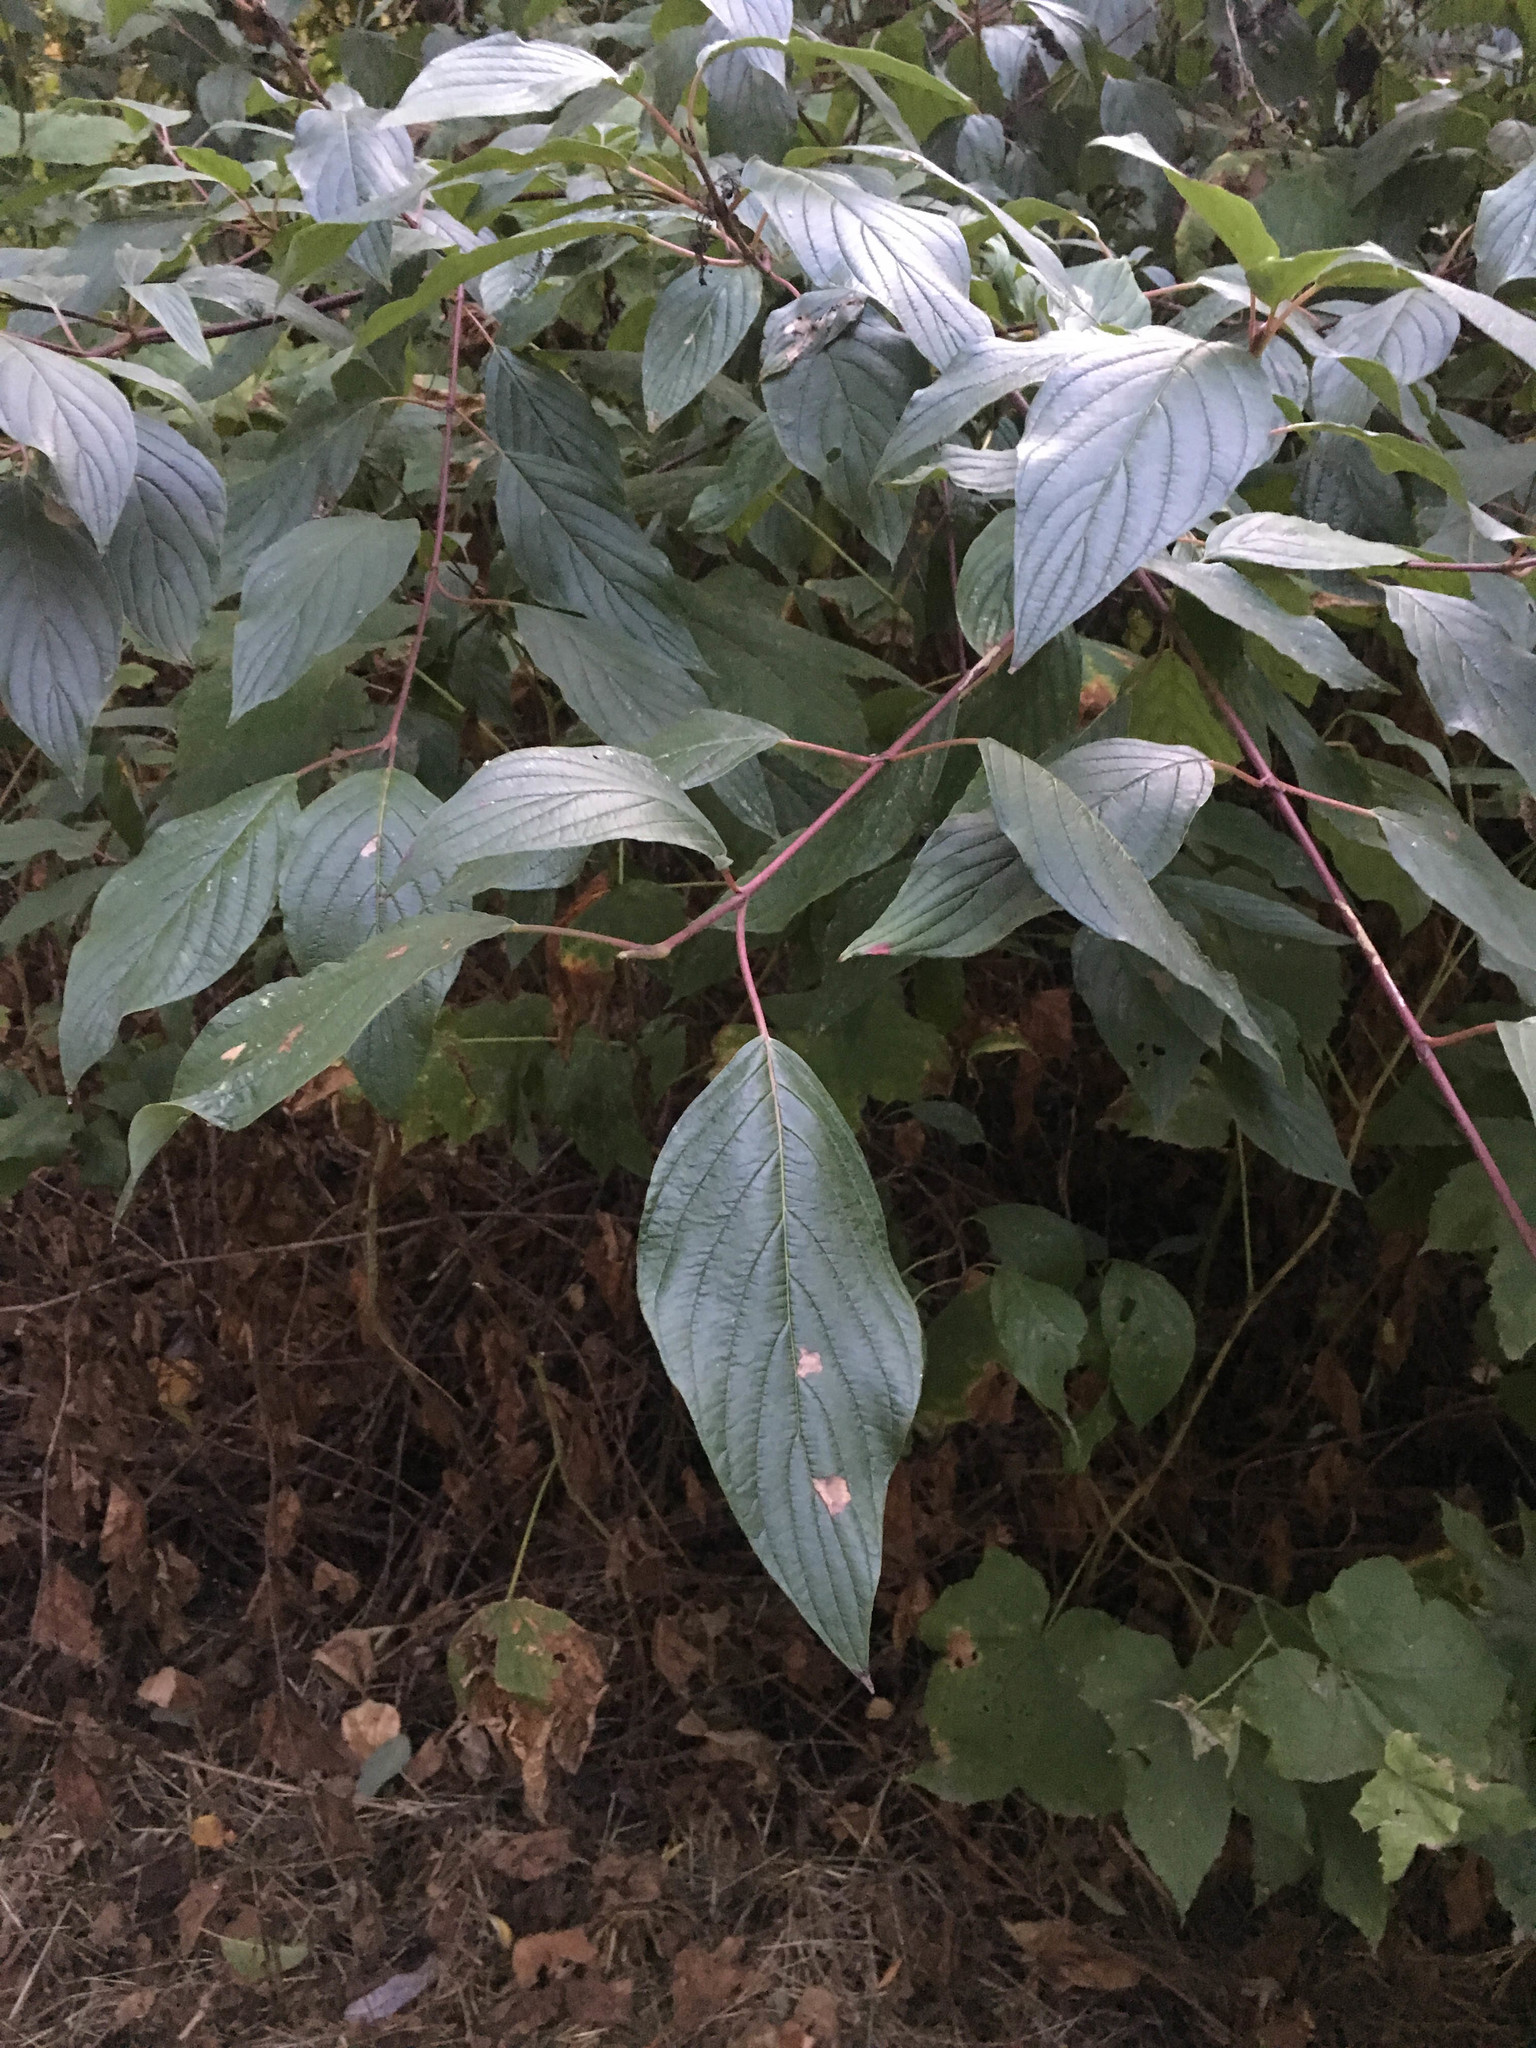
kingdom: Plantae
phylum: Tracheophyta
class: Magnoliopsida
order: Cornales
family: Cornaceae
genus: Cornus
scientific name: Cornus sericea
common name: Red-osier dogwood
